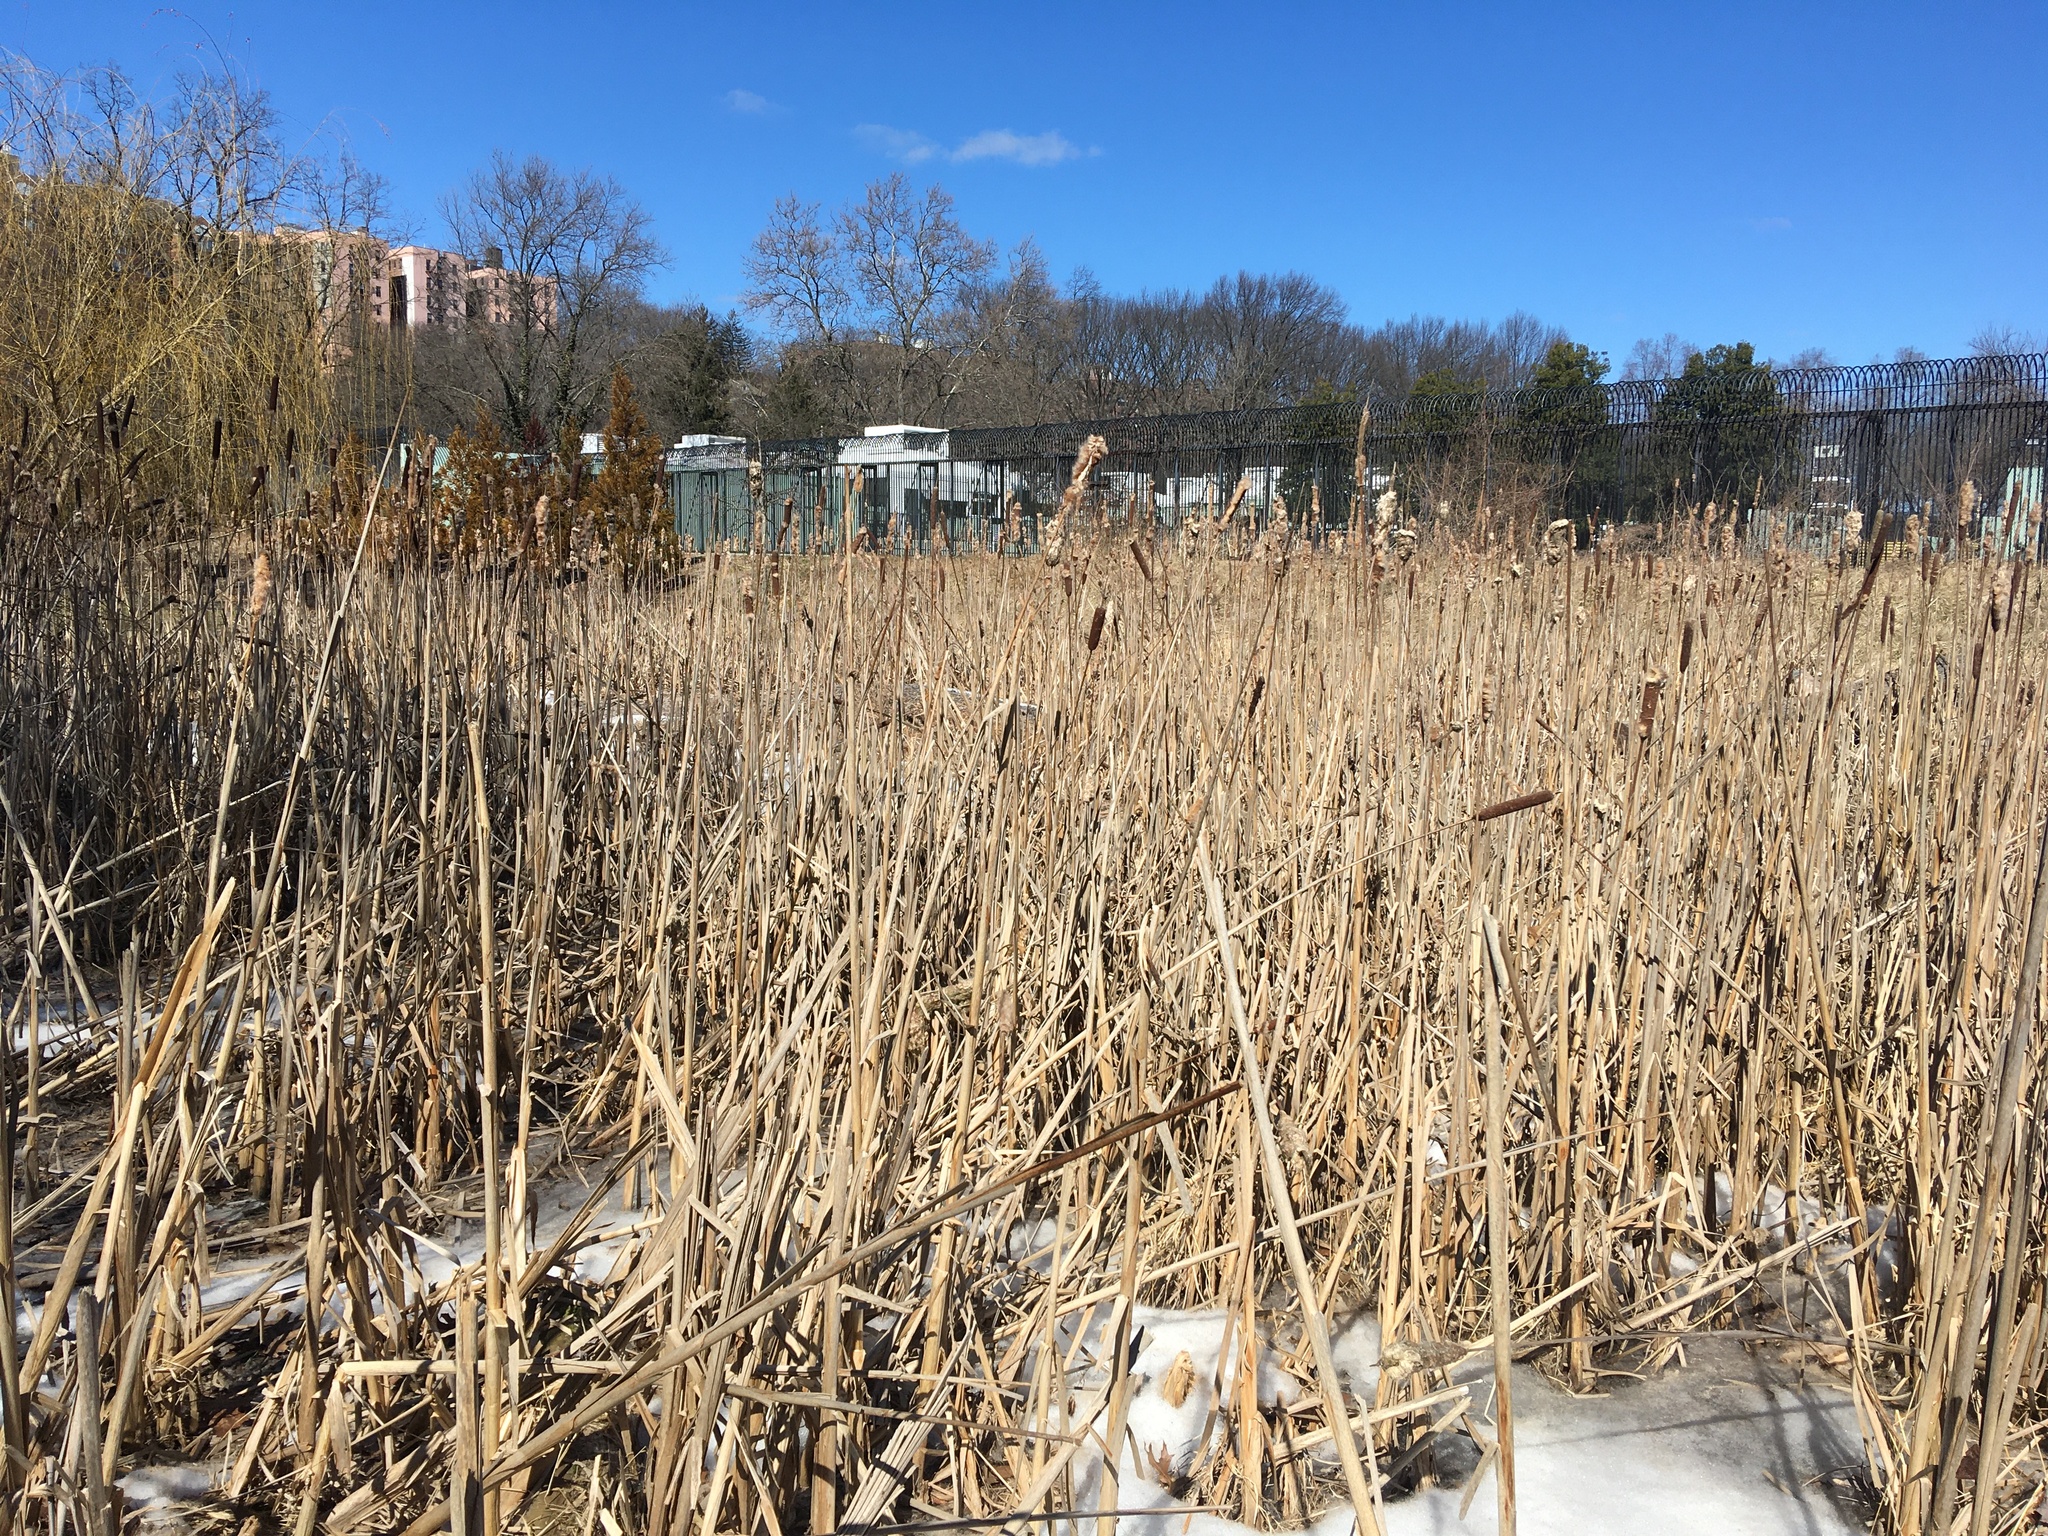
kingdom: Plantae
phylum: Tracheophyta
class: Liliopsida
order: Poales
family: Typhaceae
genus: Typha
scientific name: Typha latifolia
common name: Broadleaf cattail
